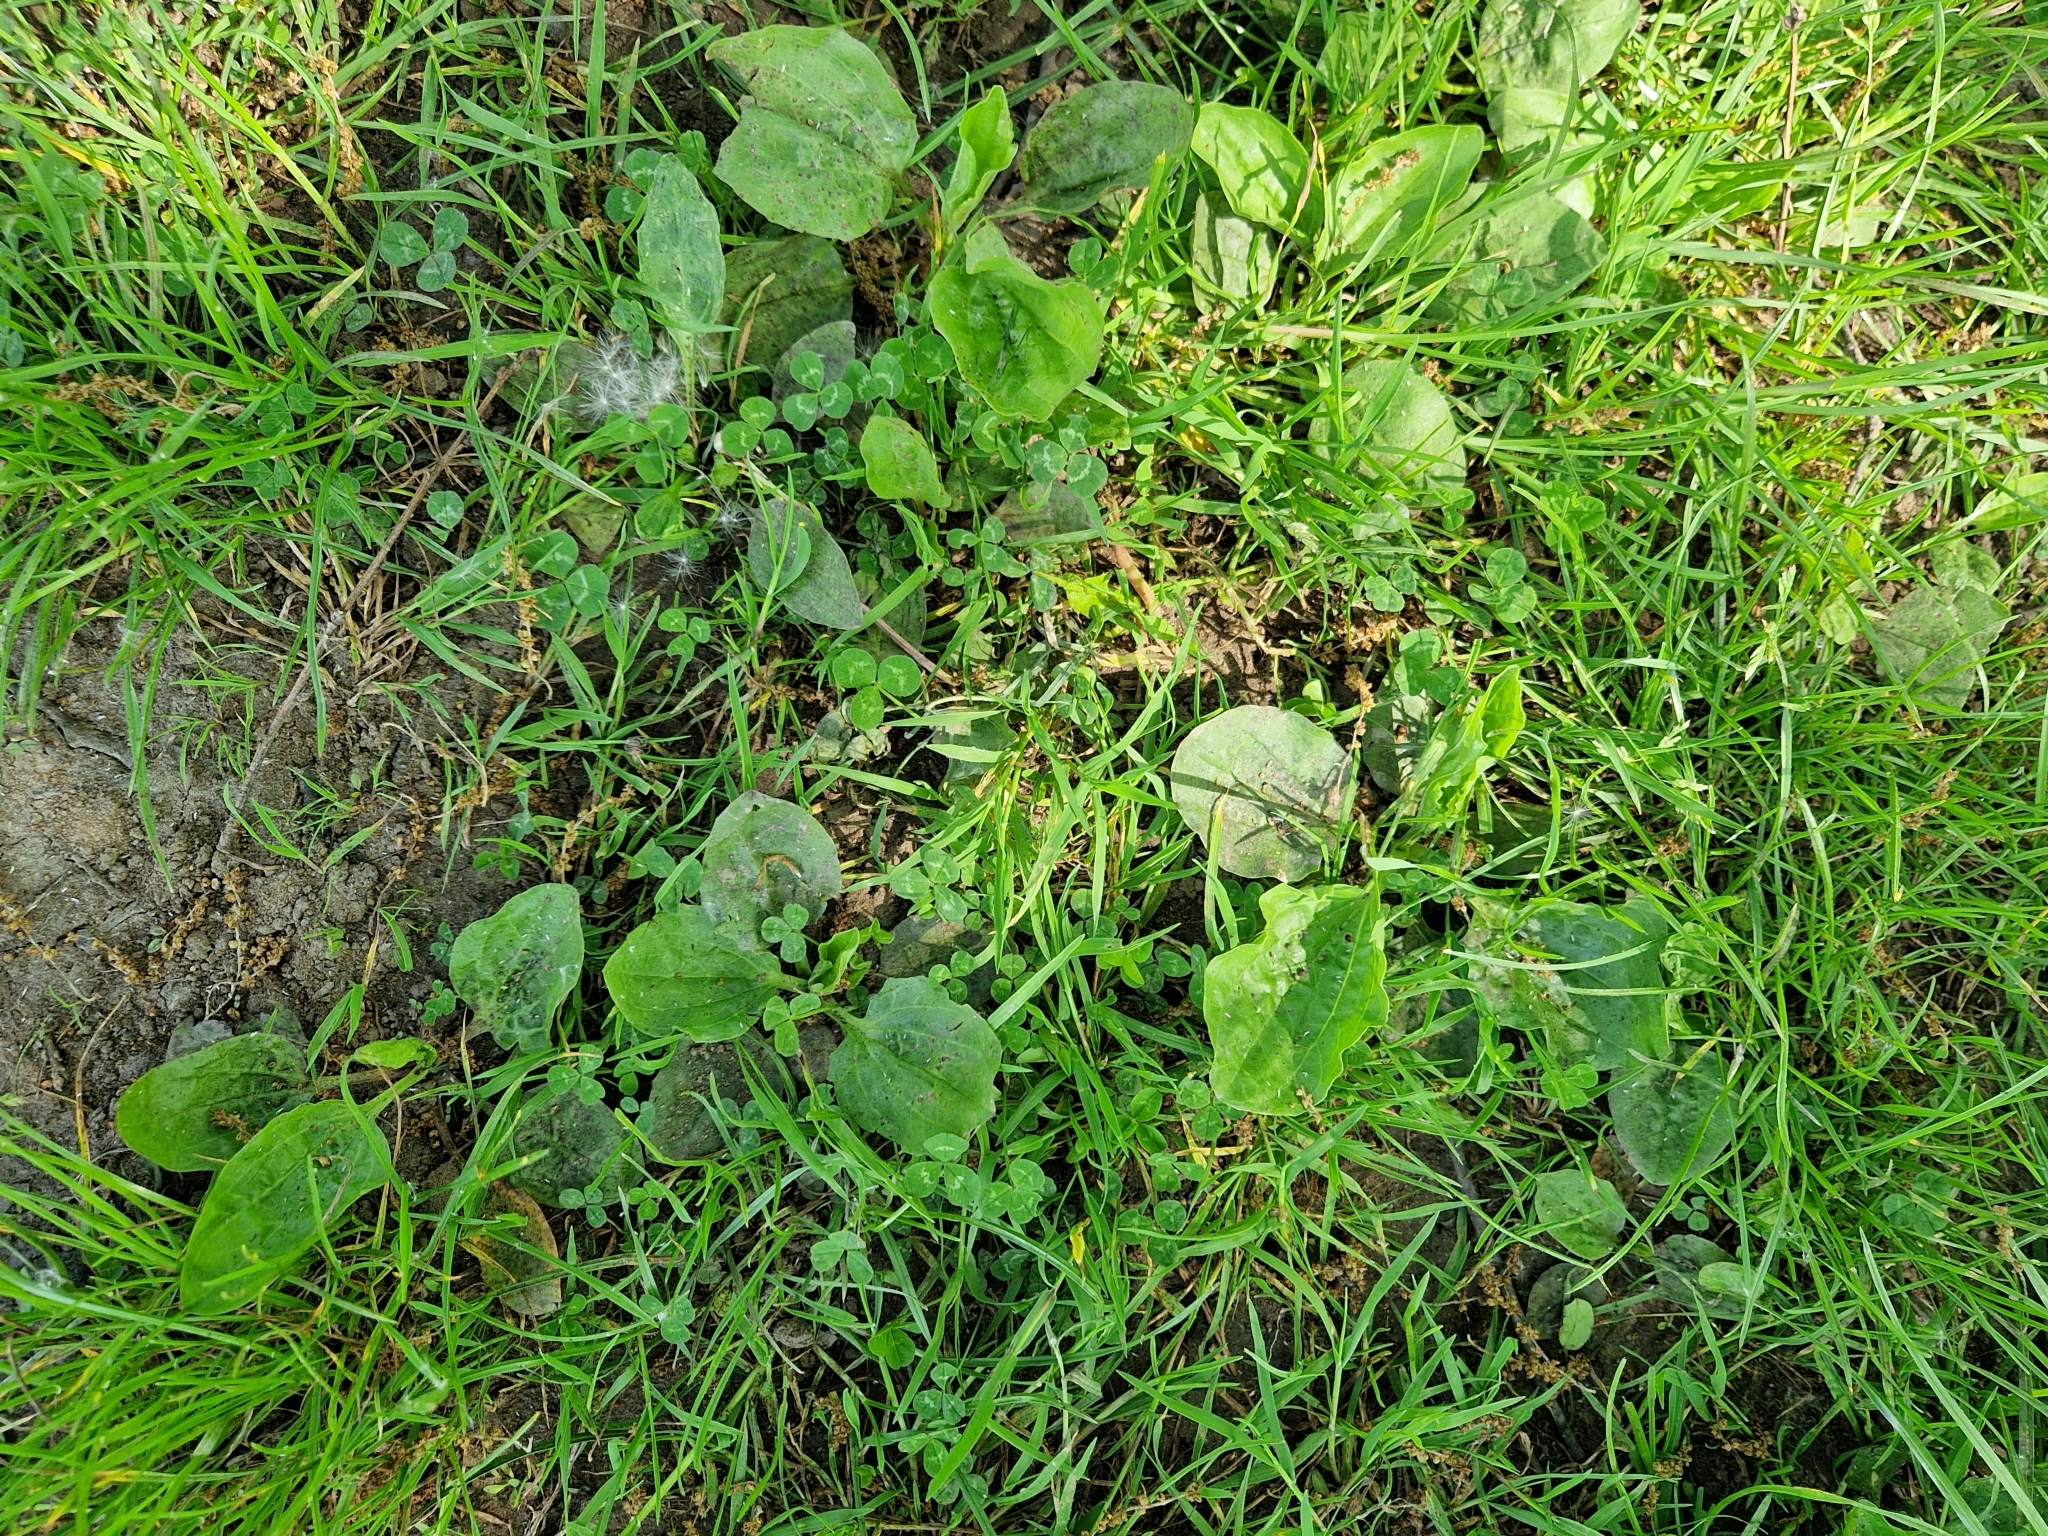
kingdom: Plantae
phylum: Tracheophyta
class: Magnoliopsida
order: Lamiales
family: Plantaginaceae
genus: Plantago
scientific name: Plantago major
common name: Common plantain
